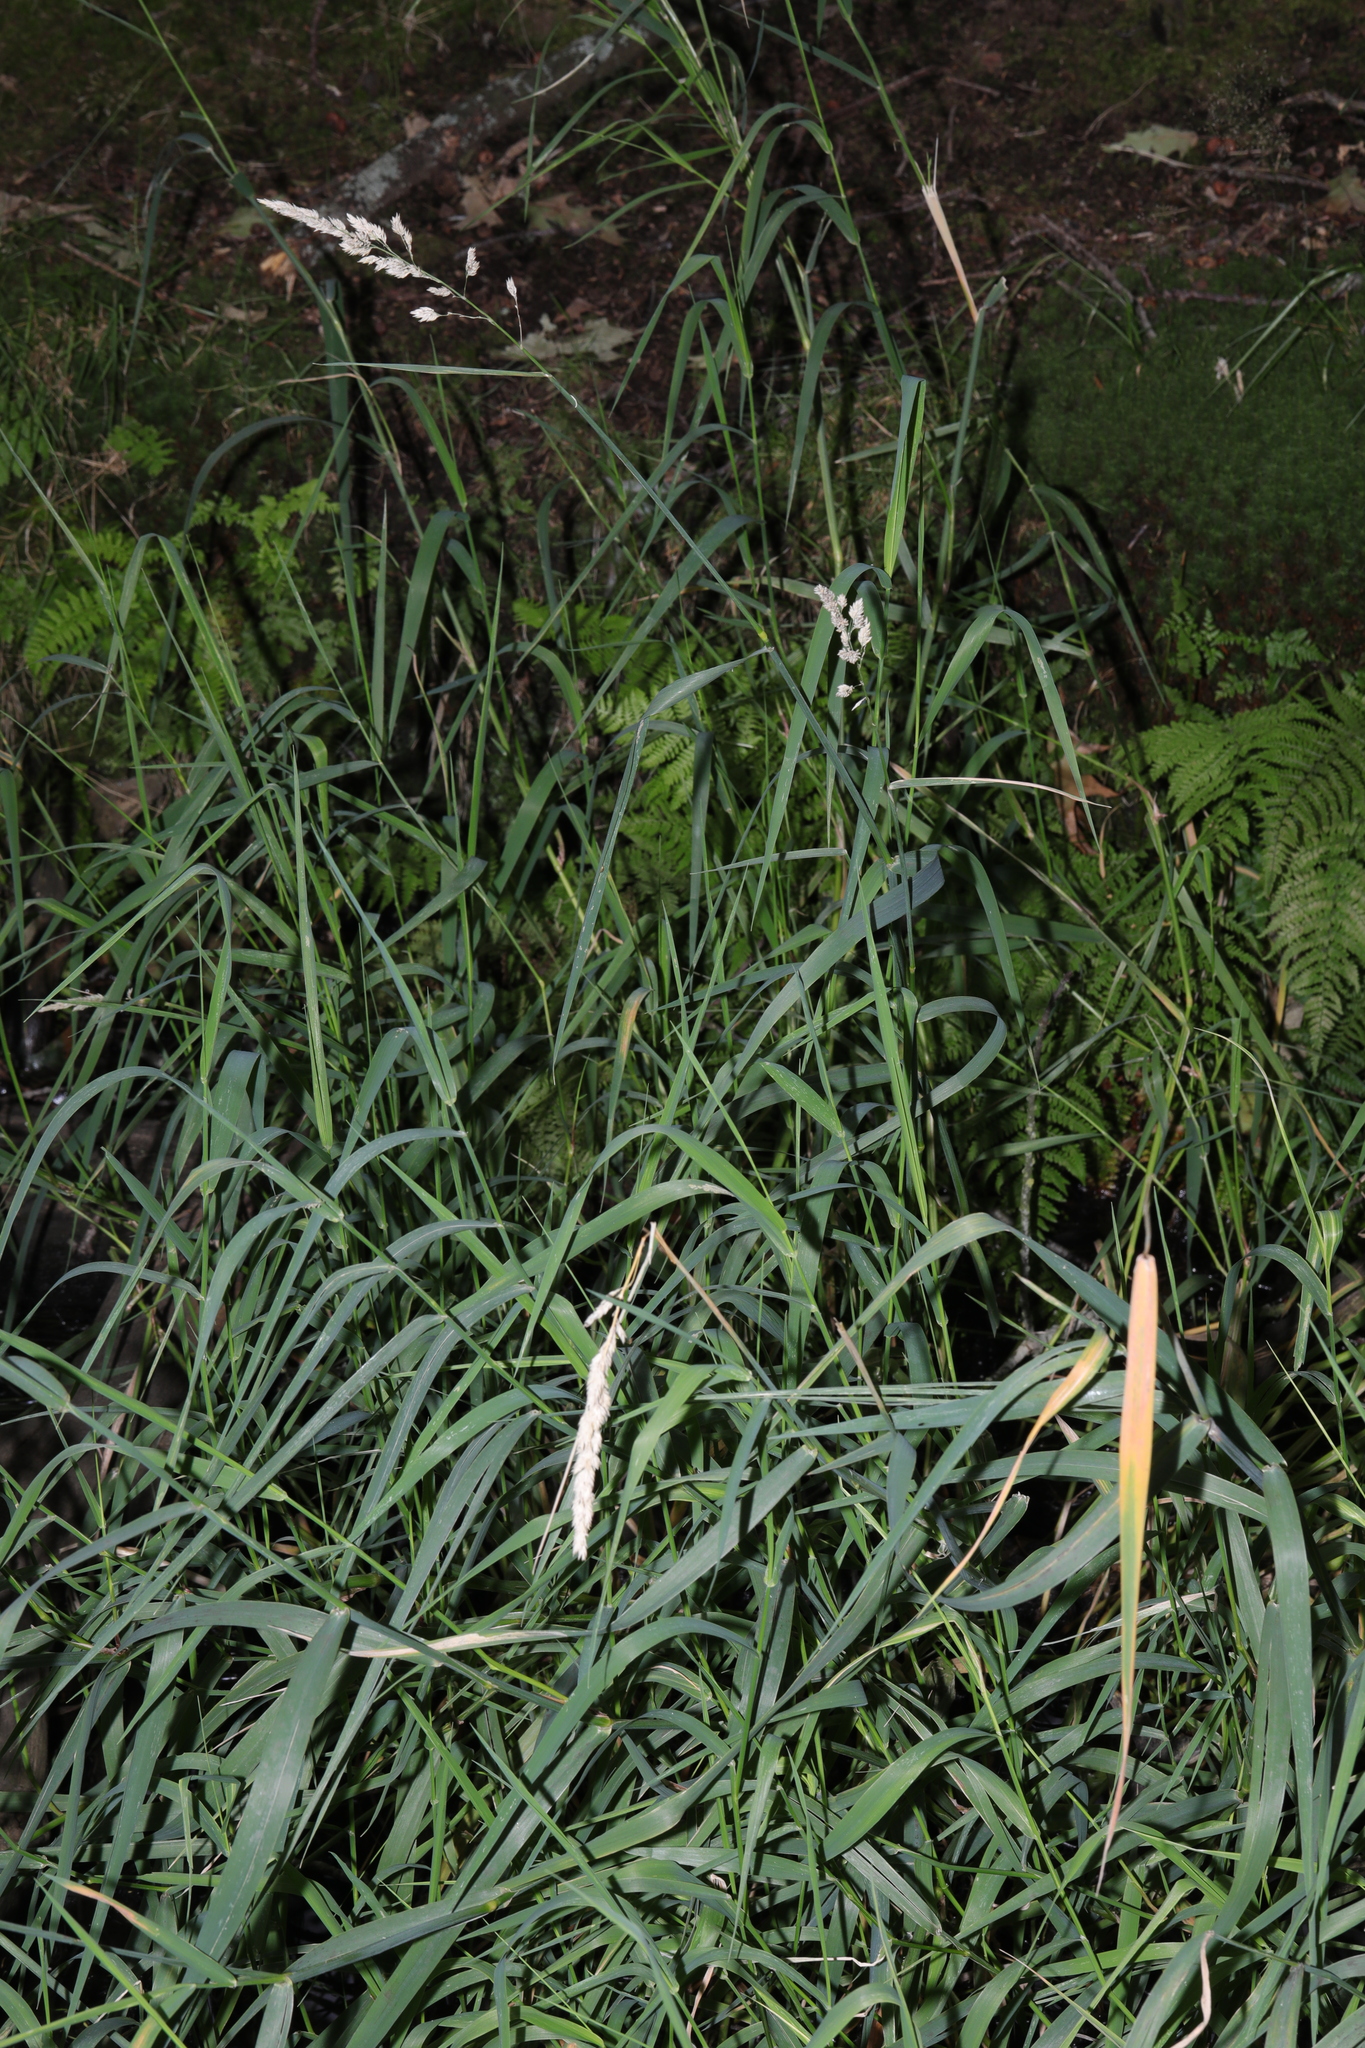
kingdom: Plantae
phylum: Tracheophyta
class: Liliopsida
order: Poales
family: Poaceae
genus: Phalaris
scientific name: Phalaris arundinacea
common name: Reed canary-grass
